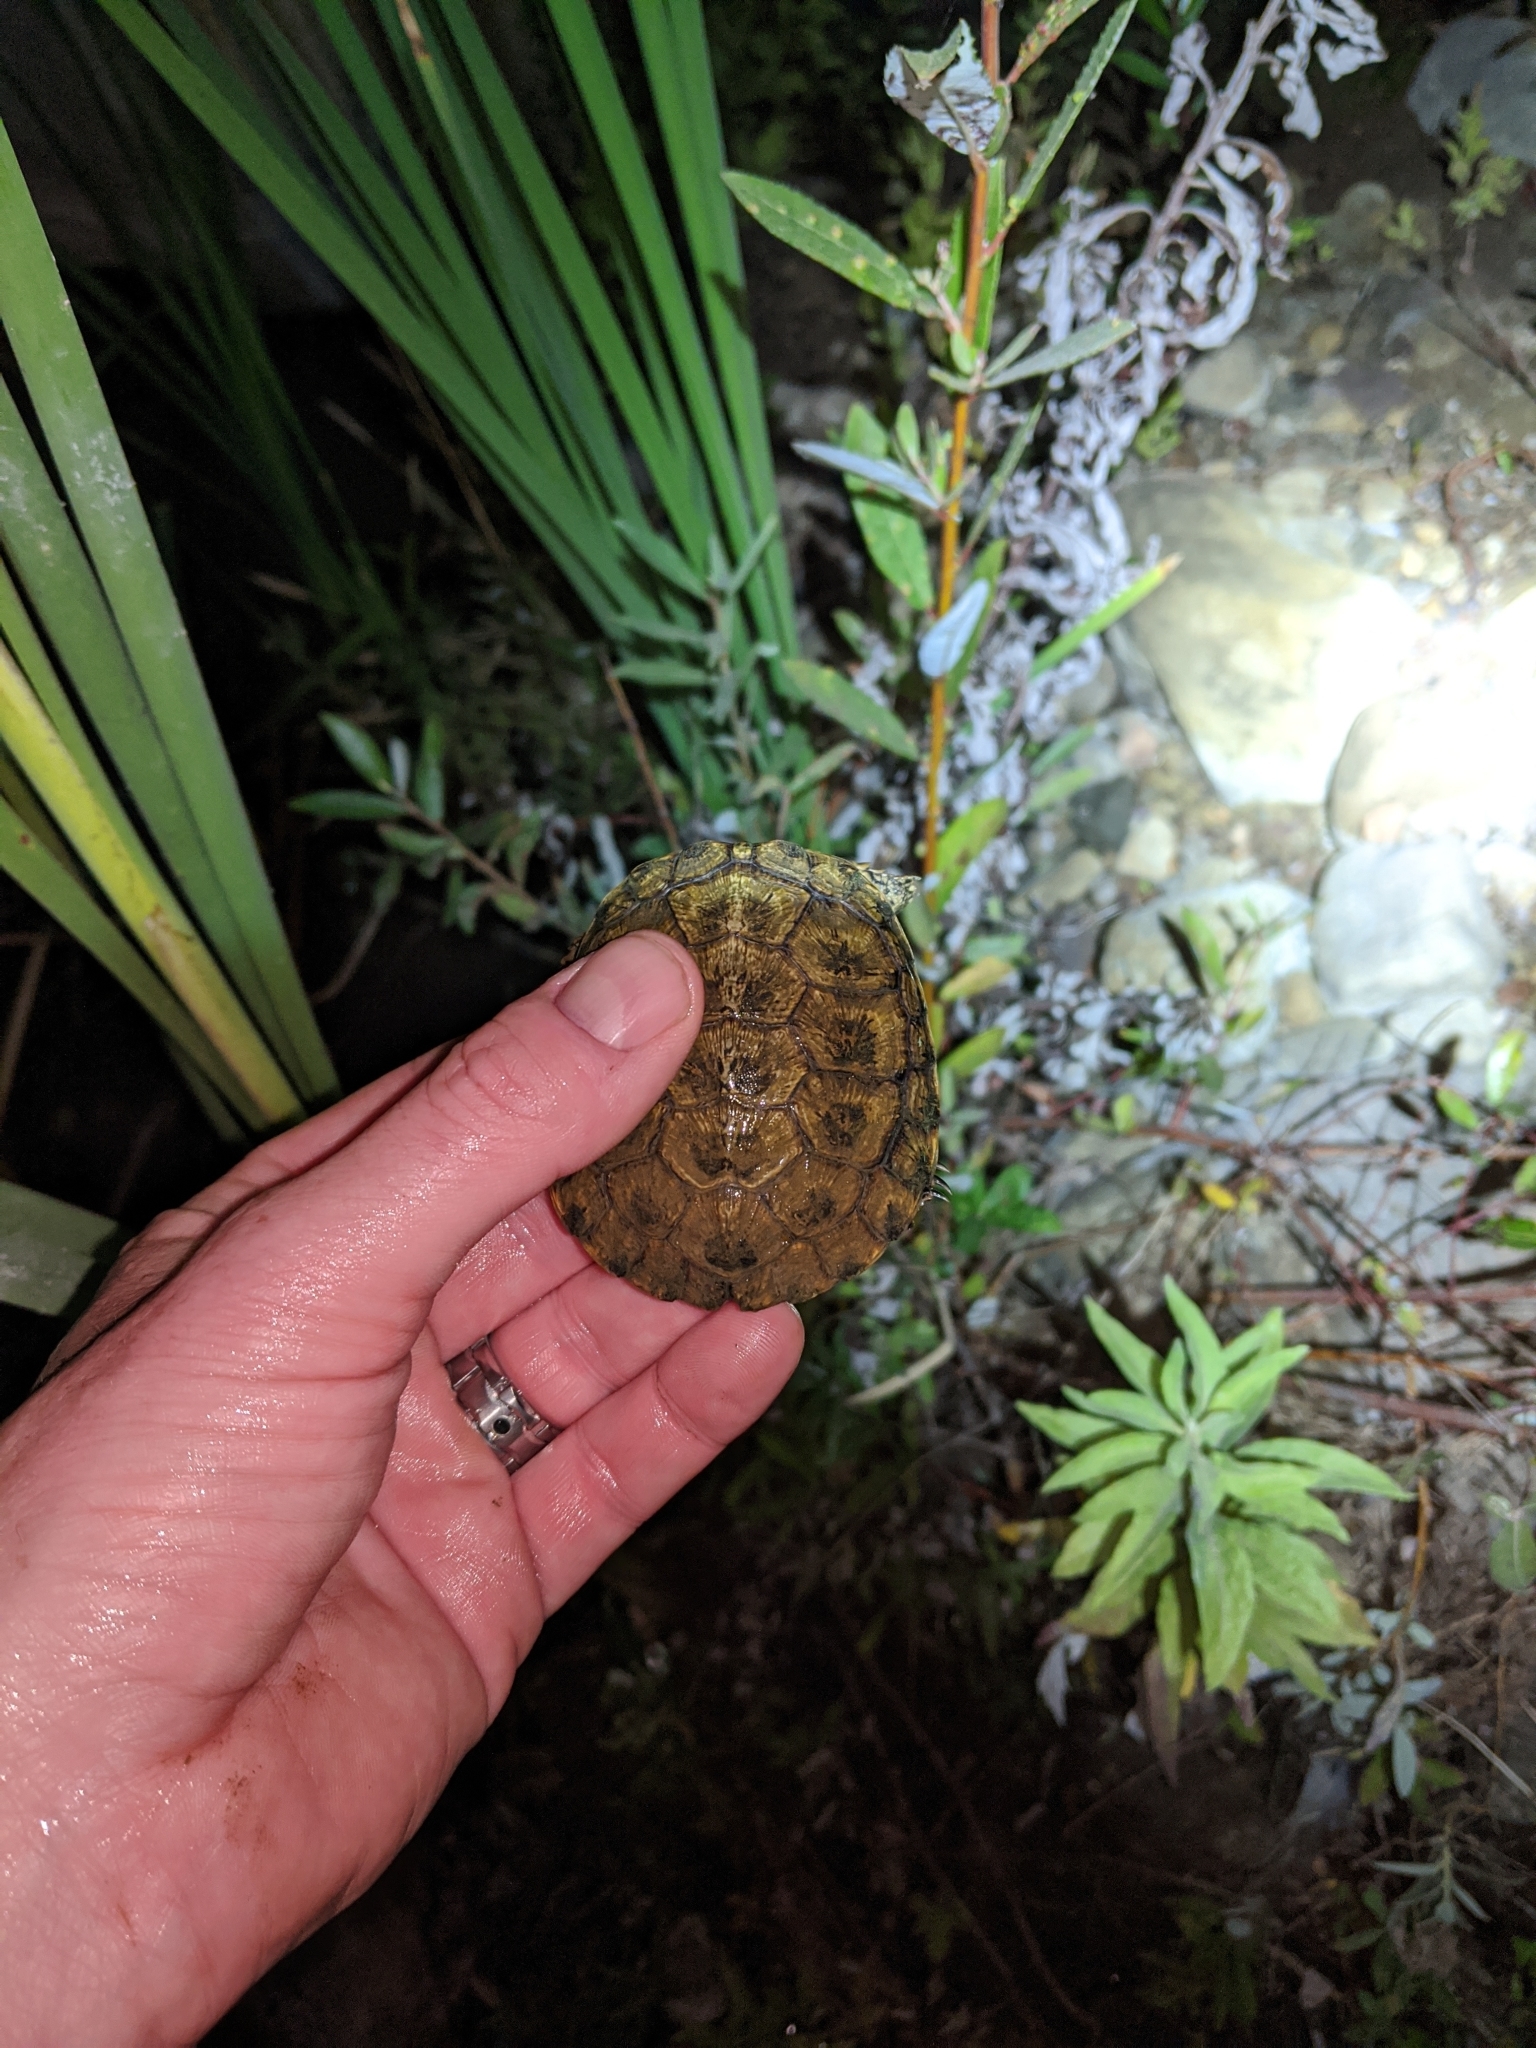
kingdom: Animalia
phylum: Chordata
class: Testudines
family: Emydidae
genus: Actinemys
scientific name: Actinemys marmorata
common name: Western pond turtle
